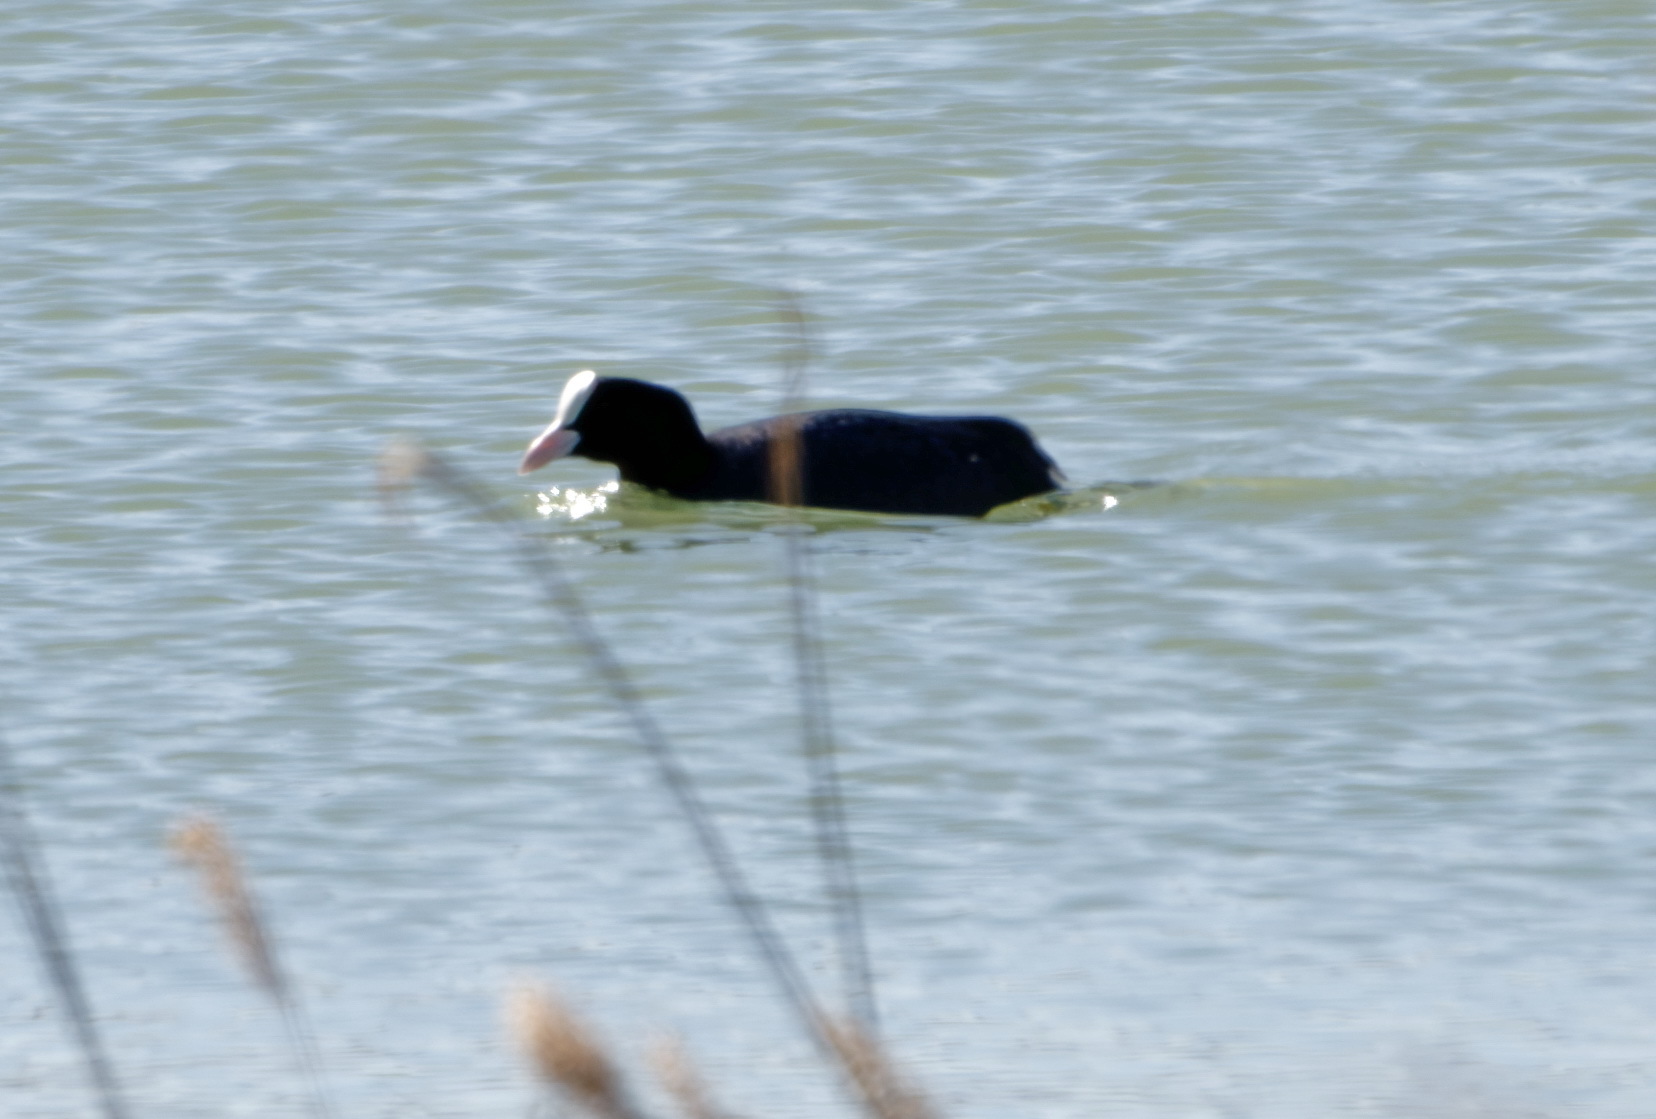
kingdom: Animalia
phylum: Chordata
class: Aves
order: Gruiformes
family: Rallidae
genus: Fulica
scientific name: Fulica atra
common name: Eurasian coot
